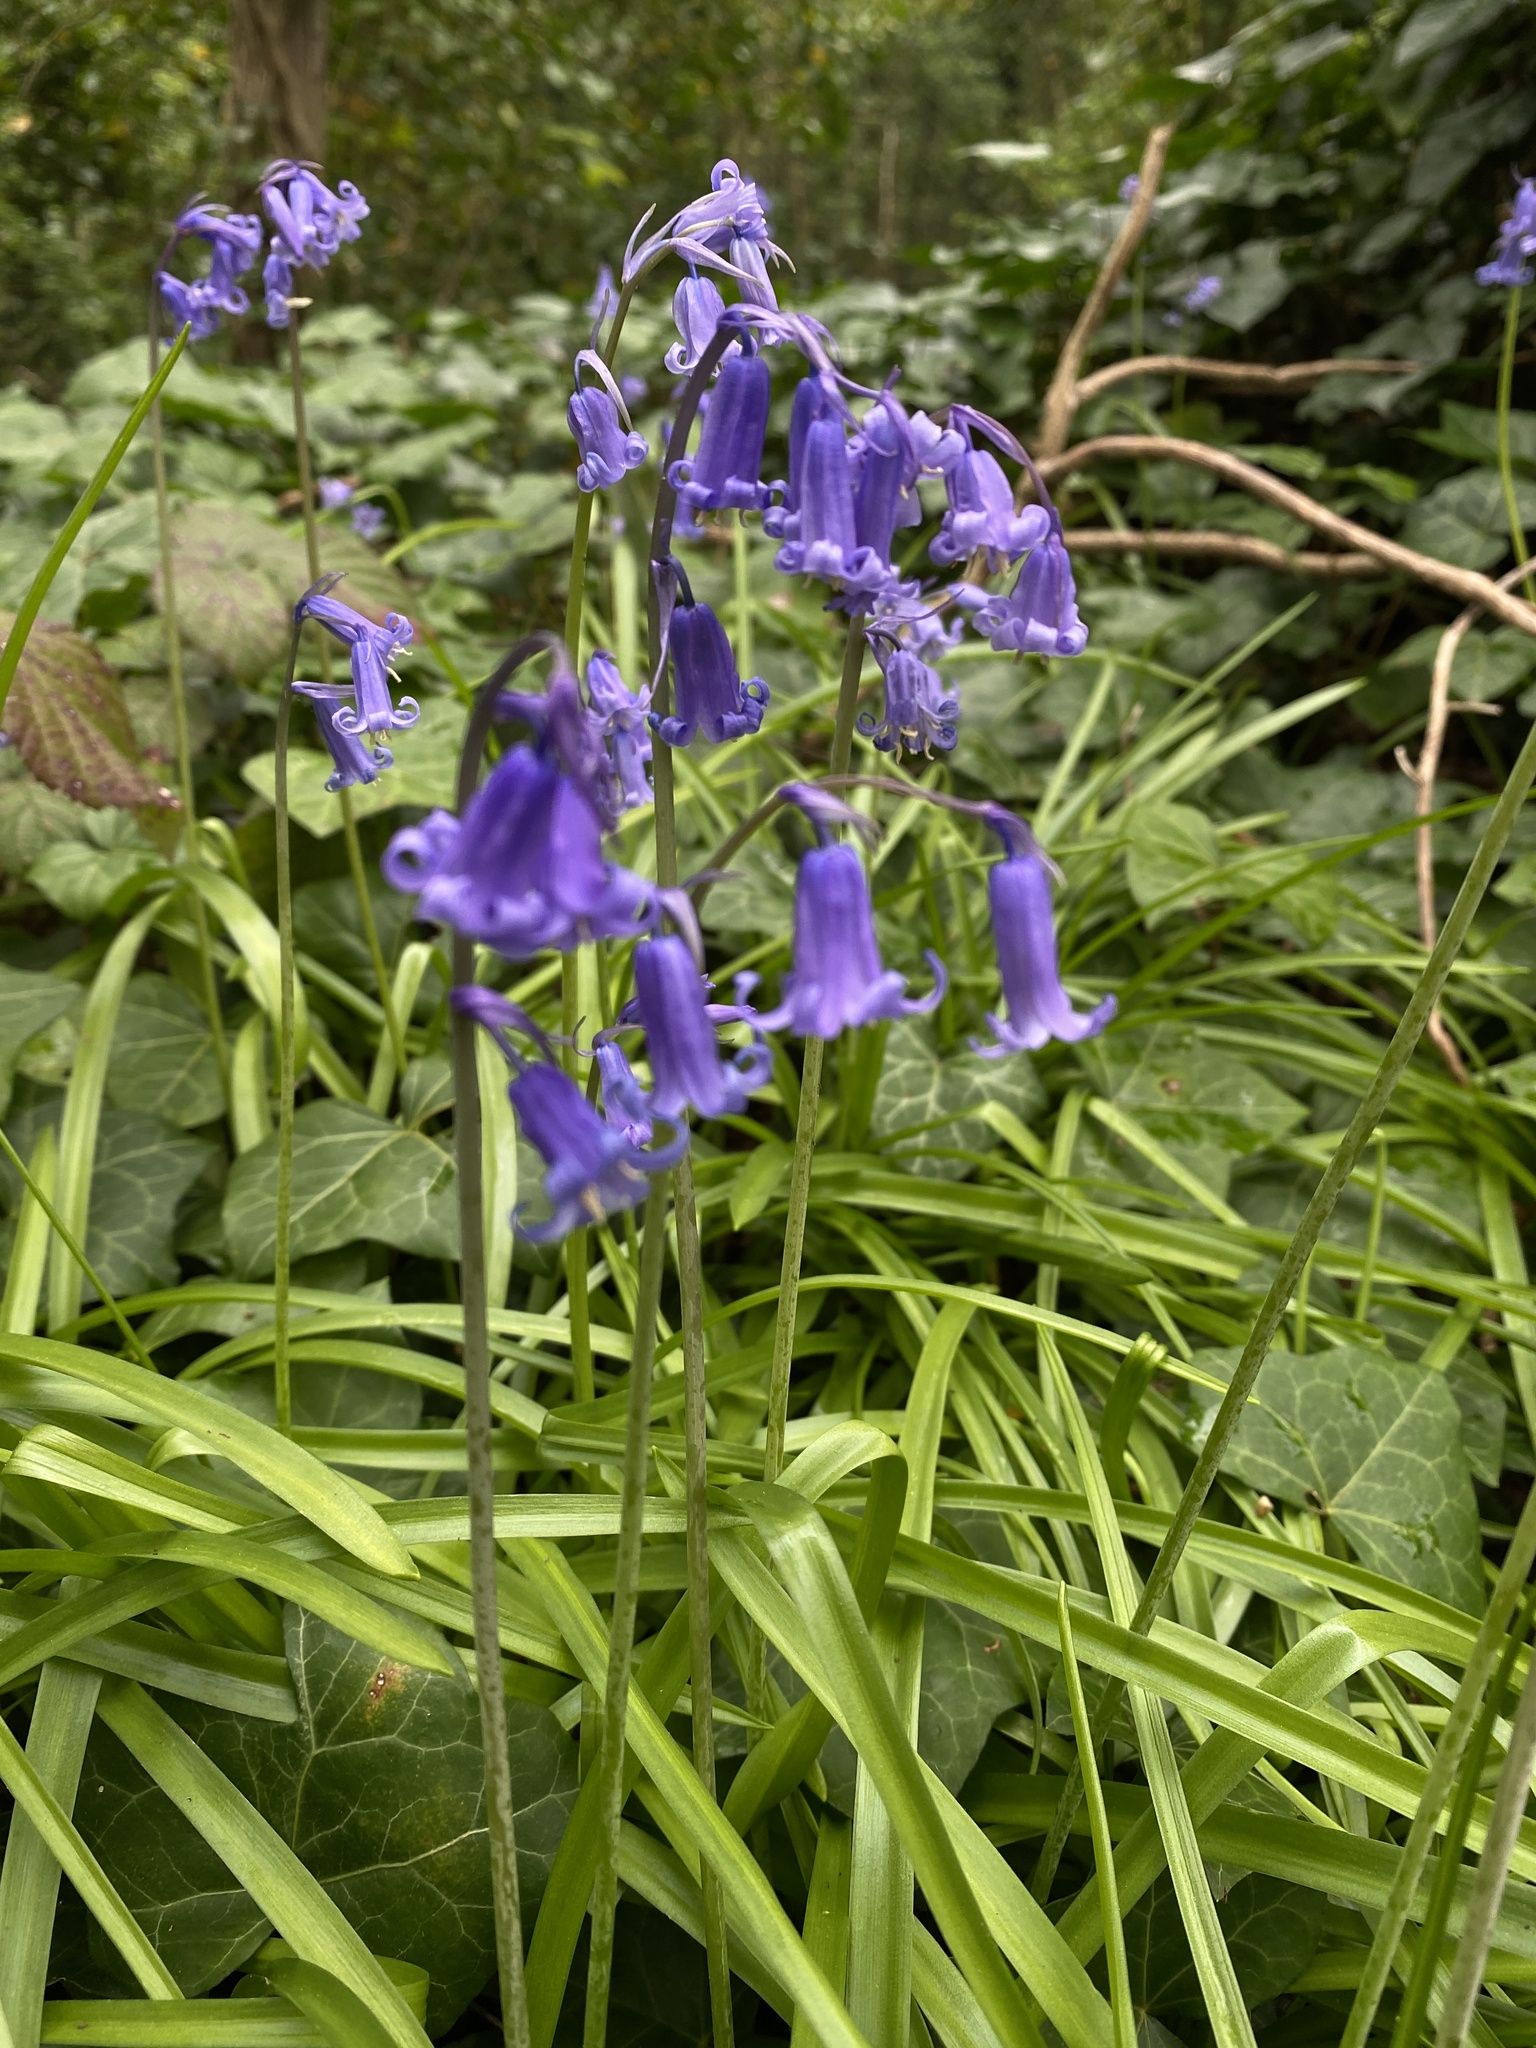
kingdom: Plantae
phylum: Tracheophyta
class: Liliopsida
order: Asparagales
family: Asparagaceae
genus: Hyacinthoides
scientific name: Hyacinthoides non-scripta
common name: Bluebell
